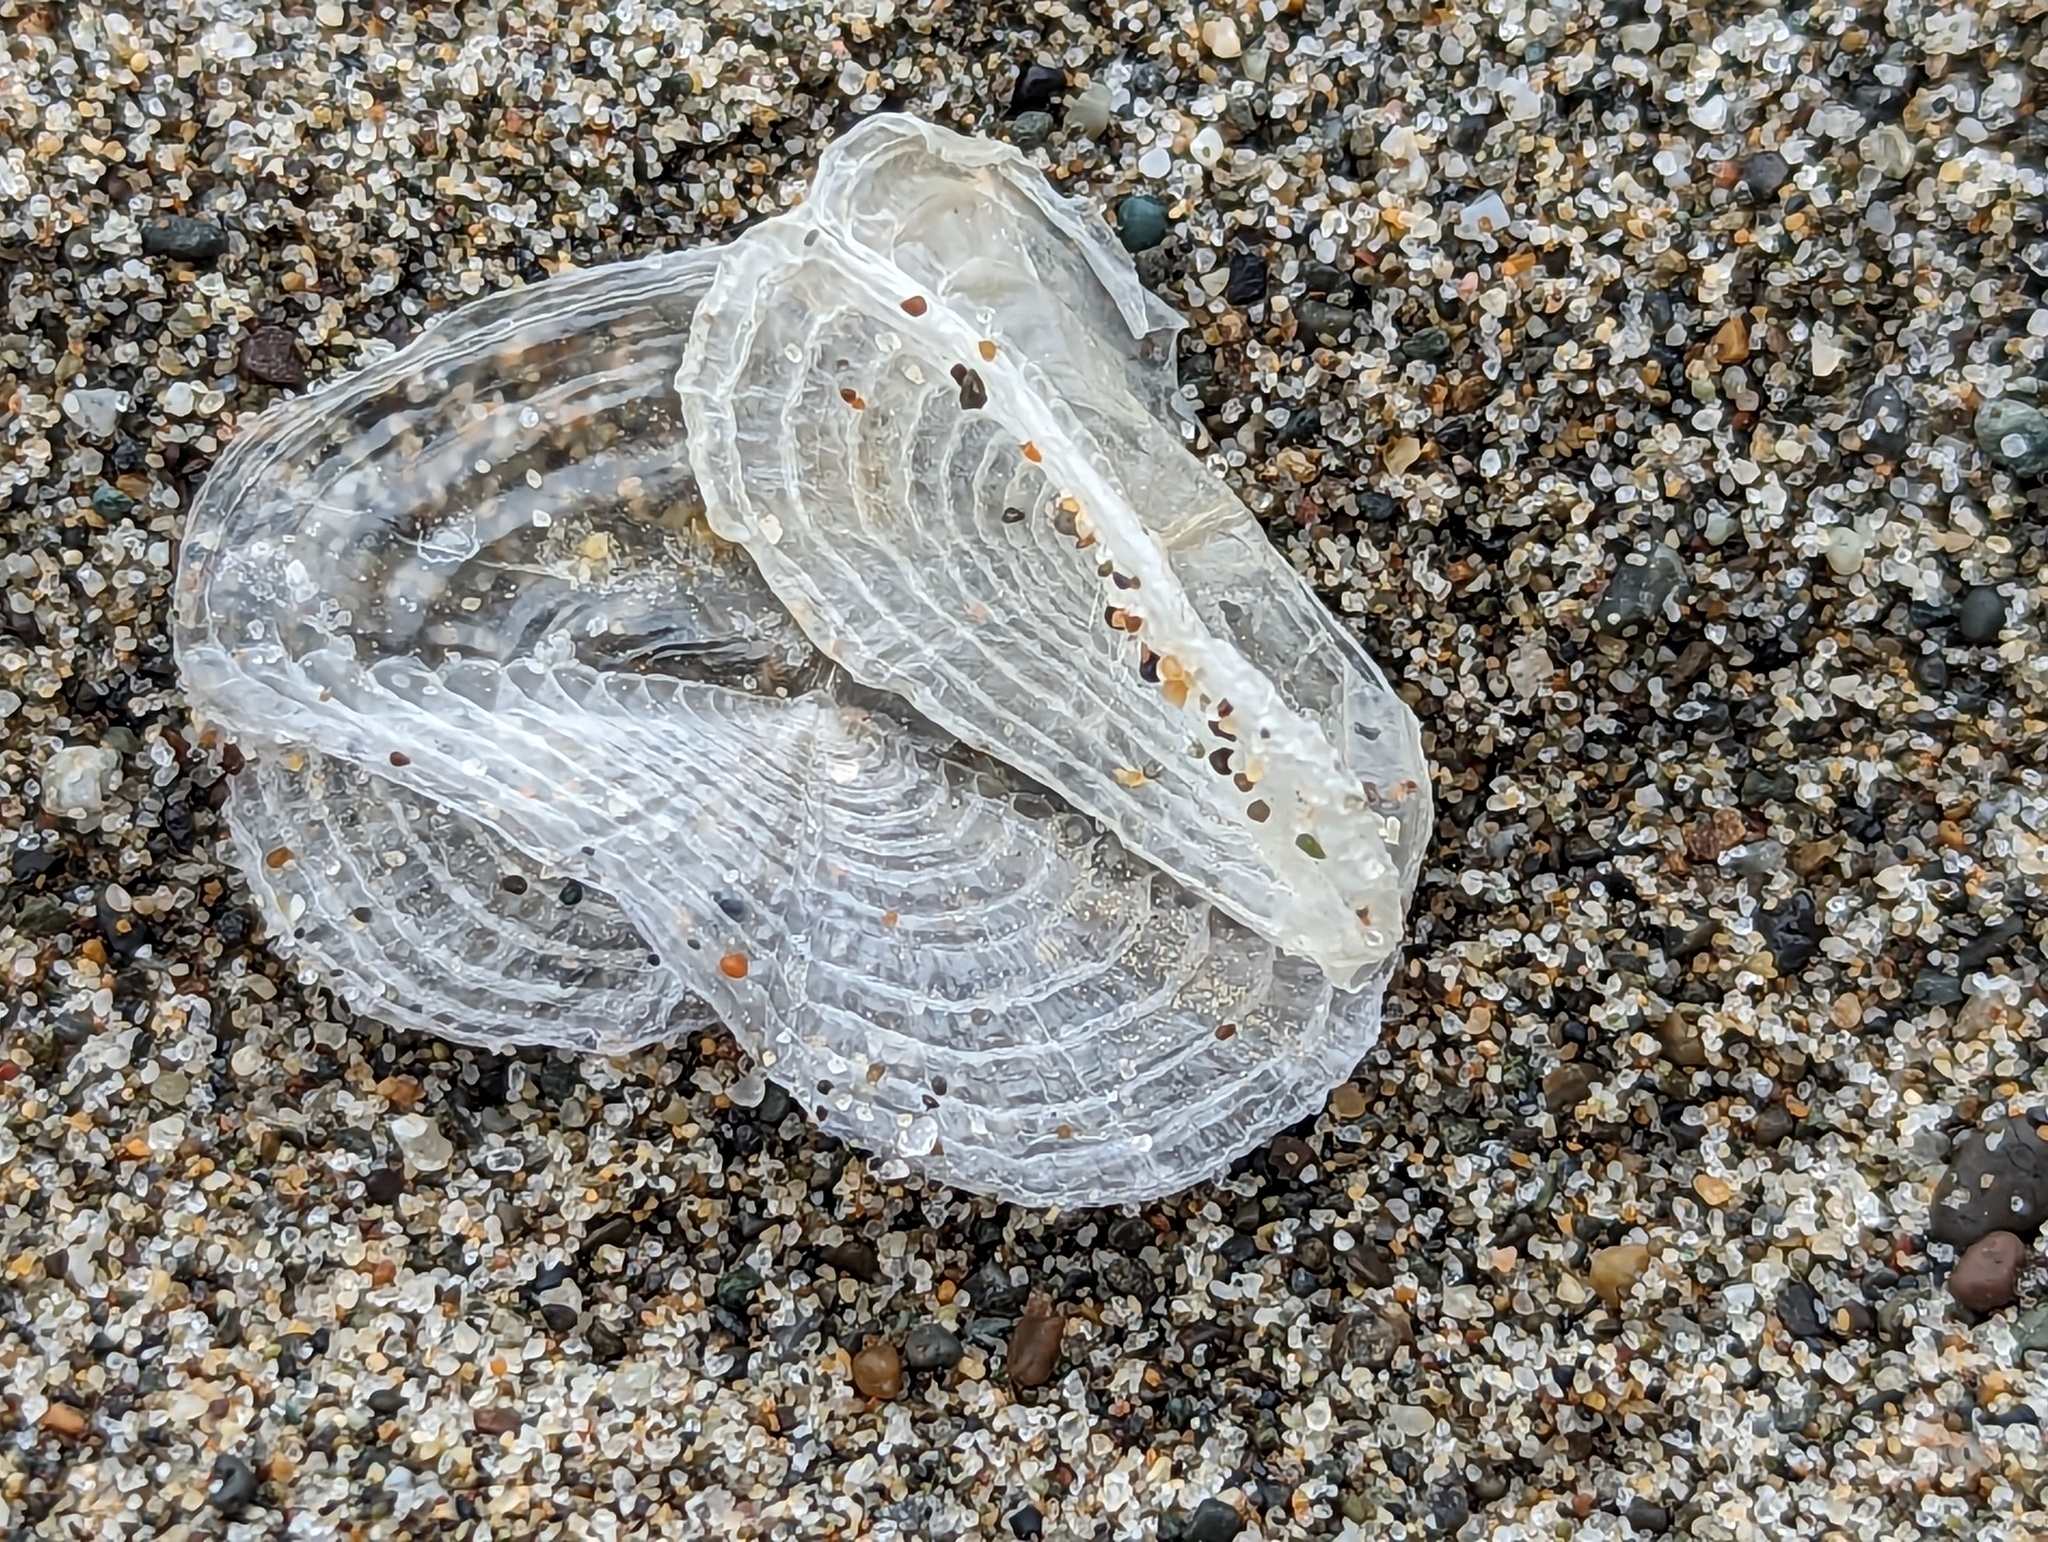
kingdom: Animalia
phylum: Cnidaria
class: Hydrozoa
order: Anthoathecata
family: Porpitidae
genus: Velella
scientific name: Velella velella
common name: By-the-wind-sailor
